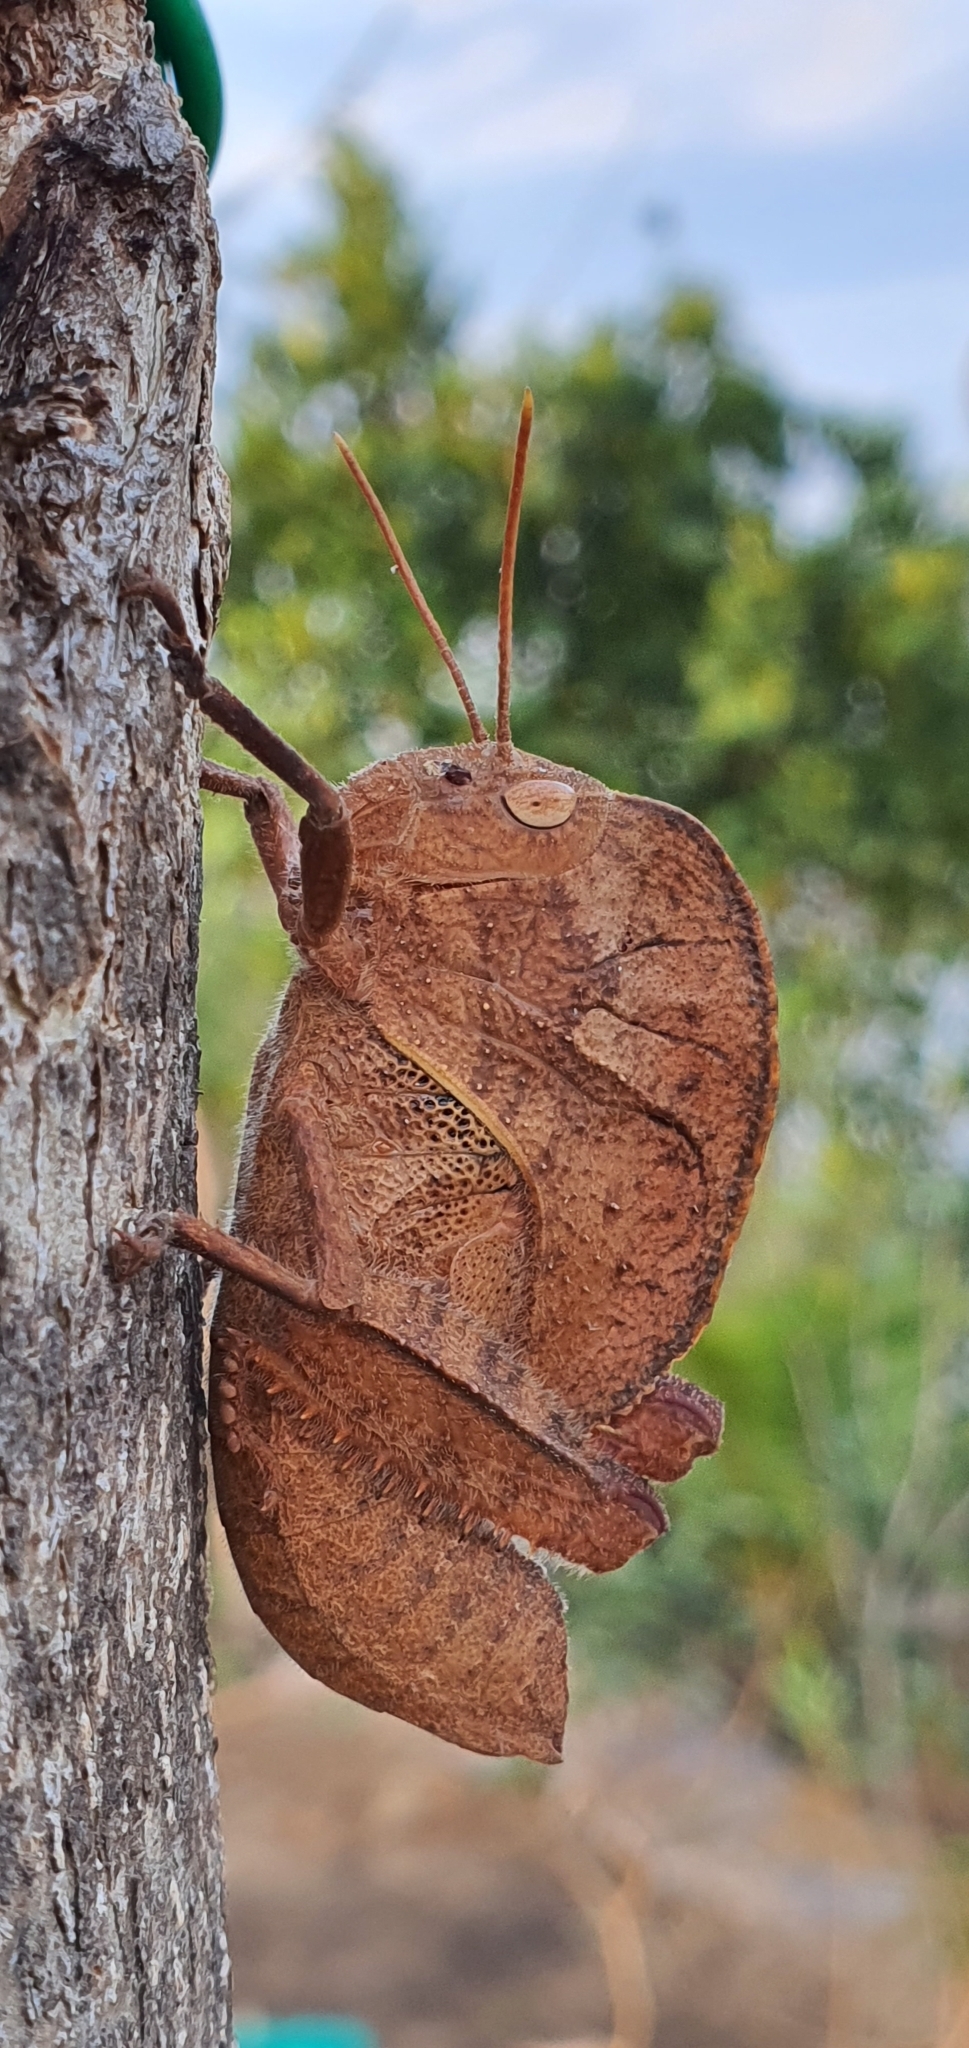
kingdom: Animalia
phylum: Arthropoda
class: Insecta
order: Orthoptera
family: Acrididae
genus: Teratodes
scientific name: Teratodes monticollis
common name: Hooded grasshopper
